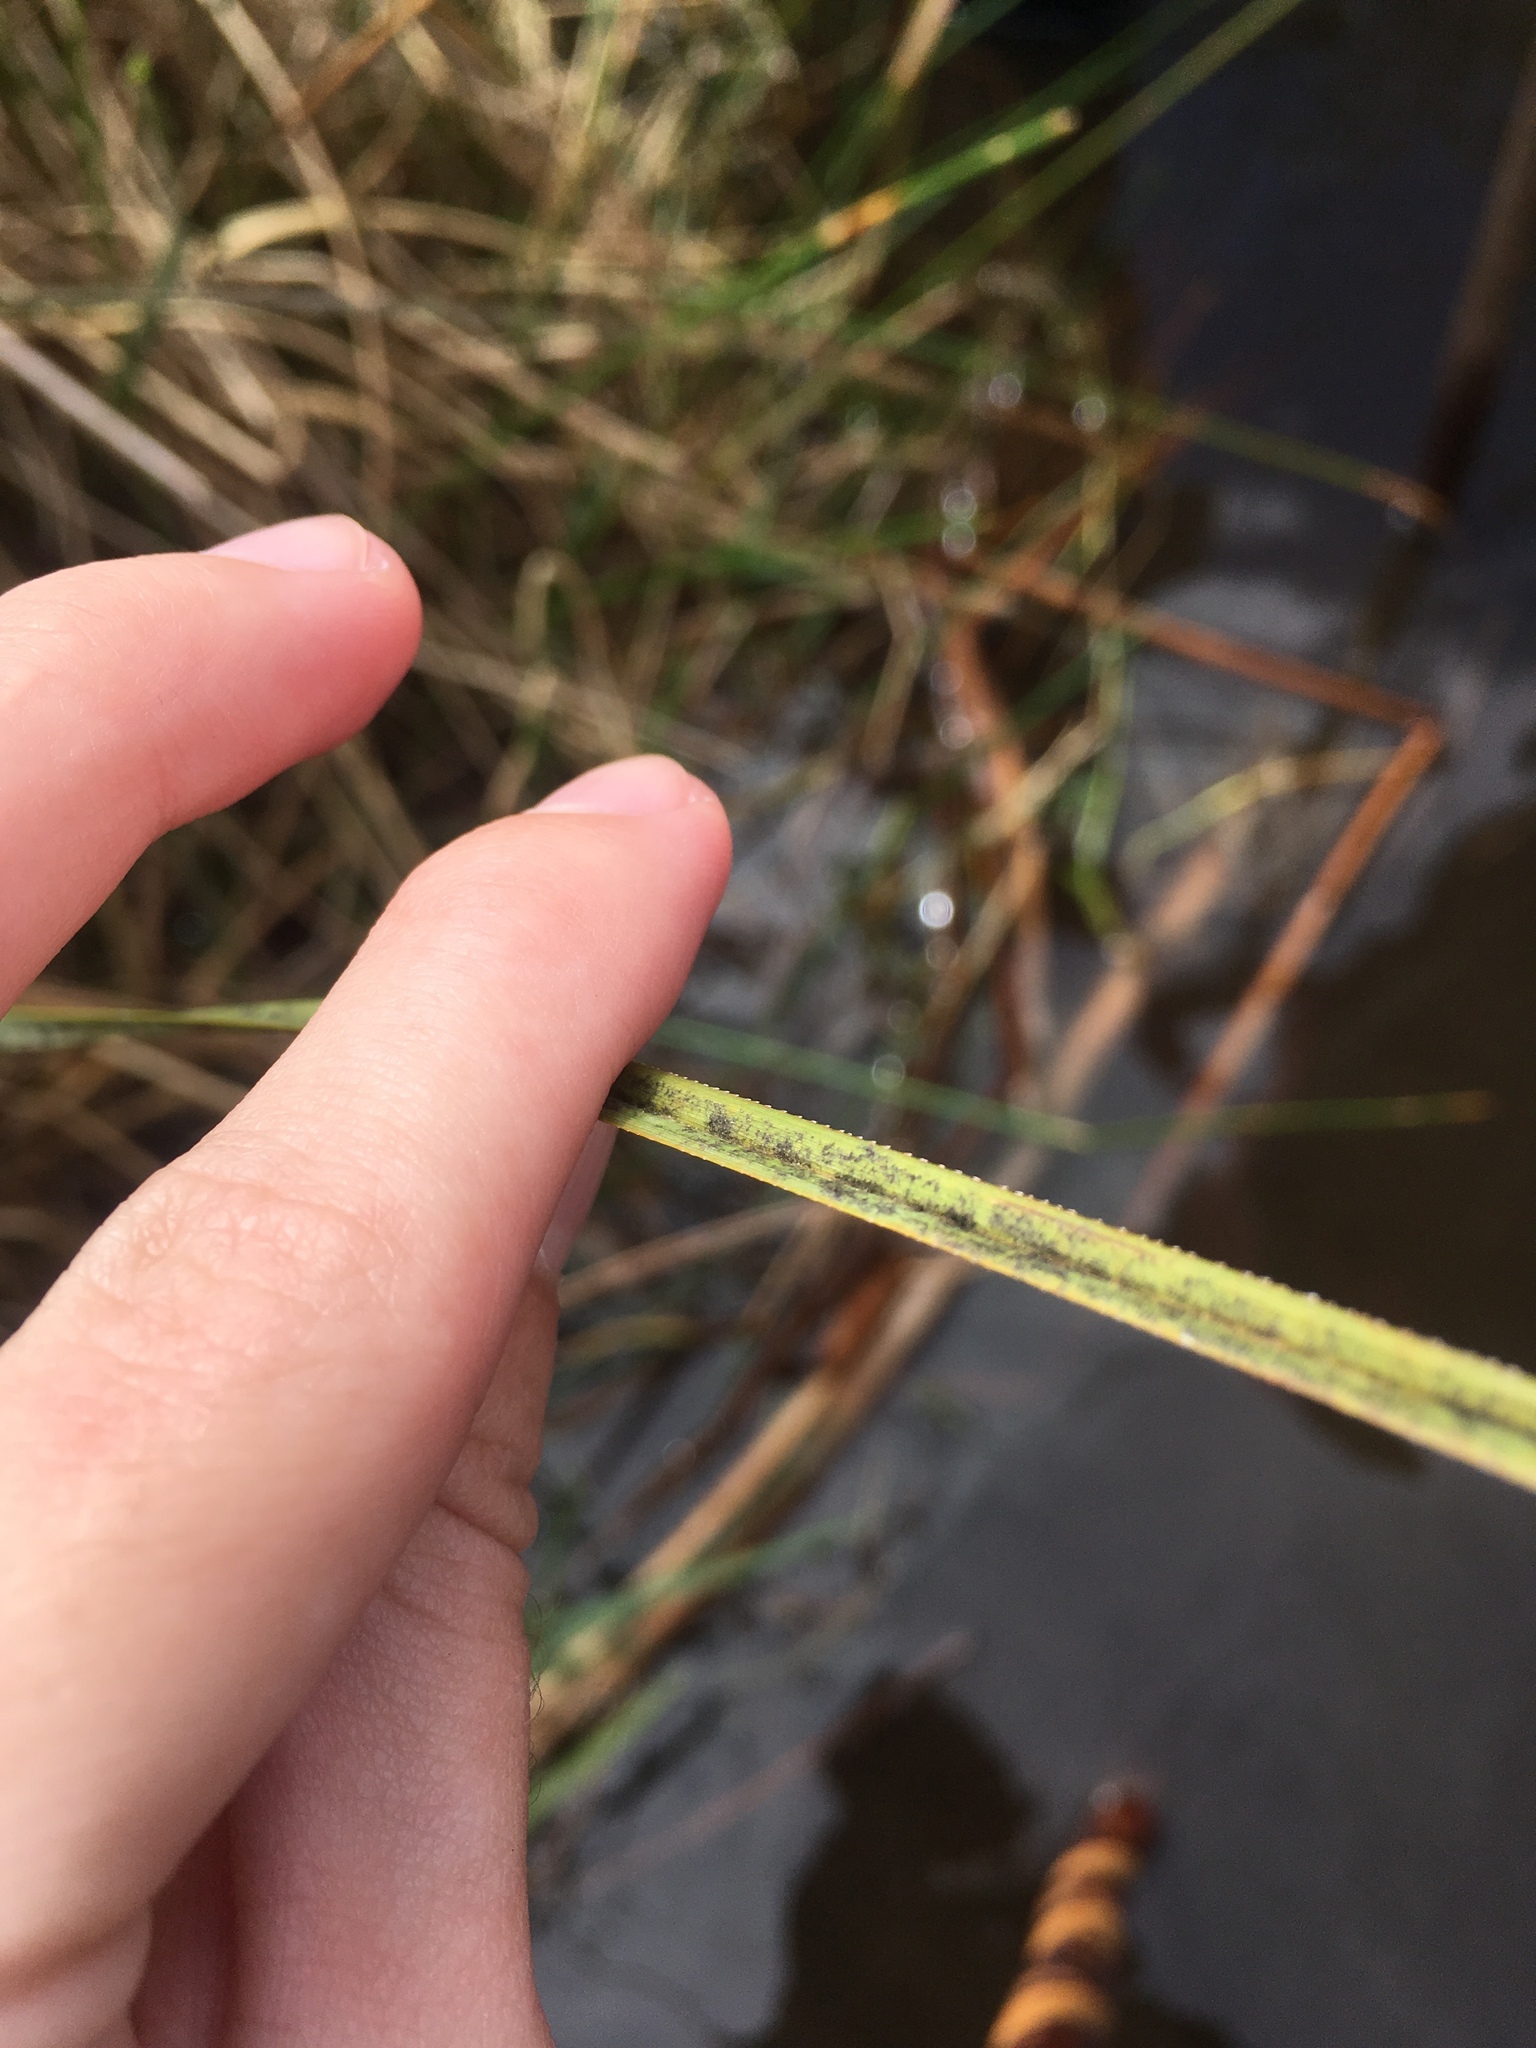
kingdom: Plantae
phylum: Tracheophyta
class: Liliopsida
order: Poales
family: Cyperaceae
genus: Cladium
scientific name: Cladium mariscus
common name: Great fen-sedge
